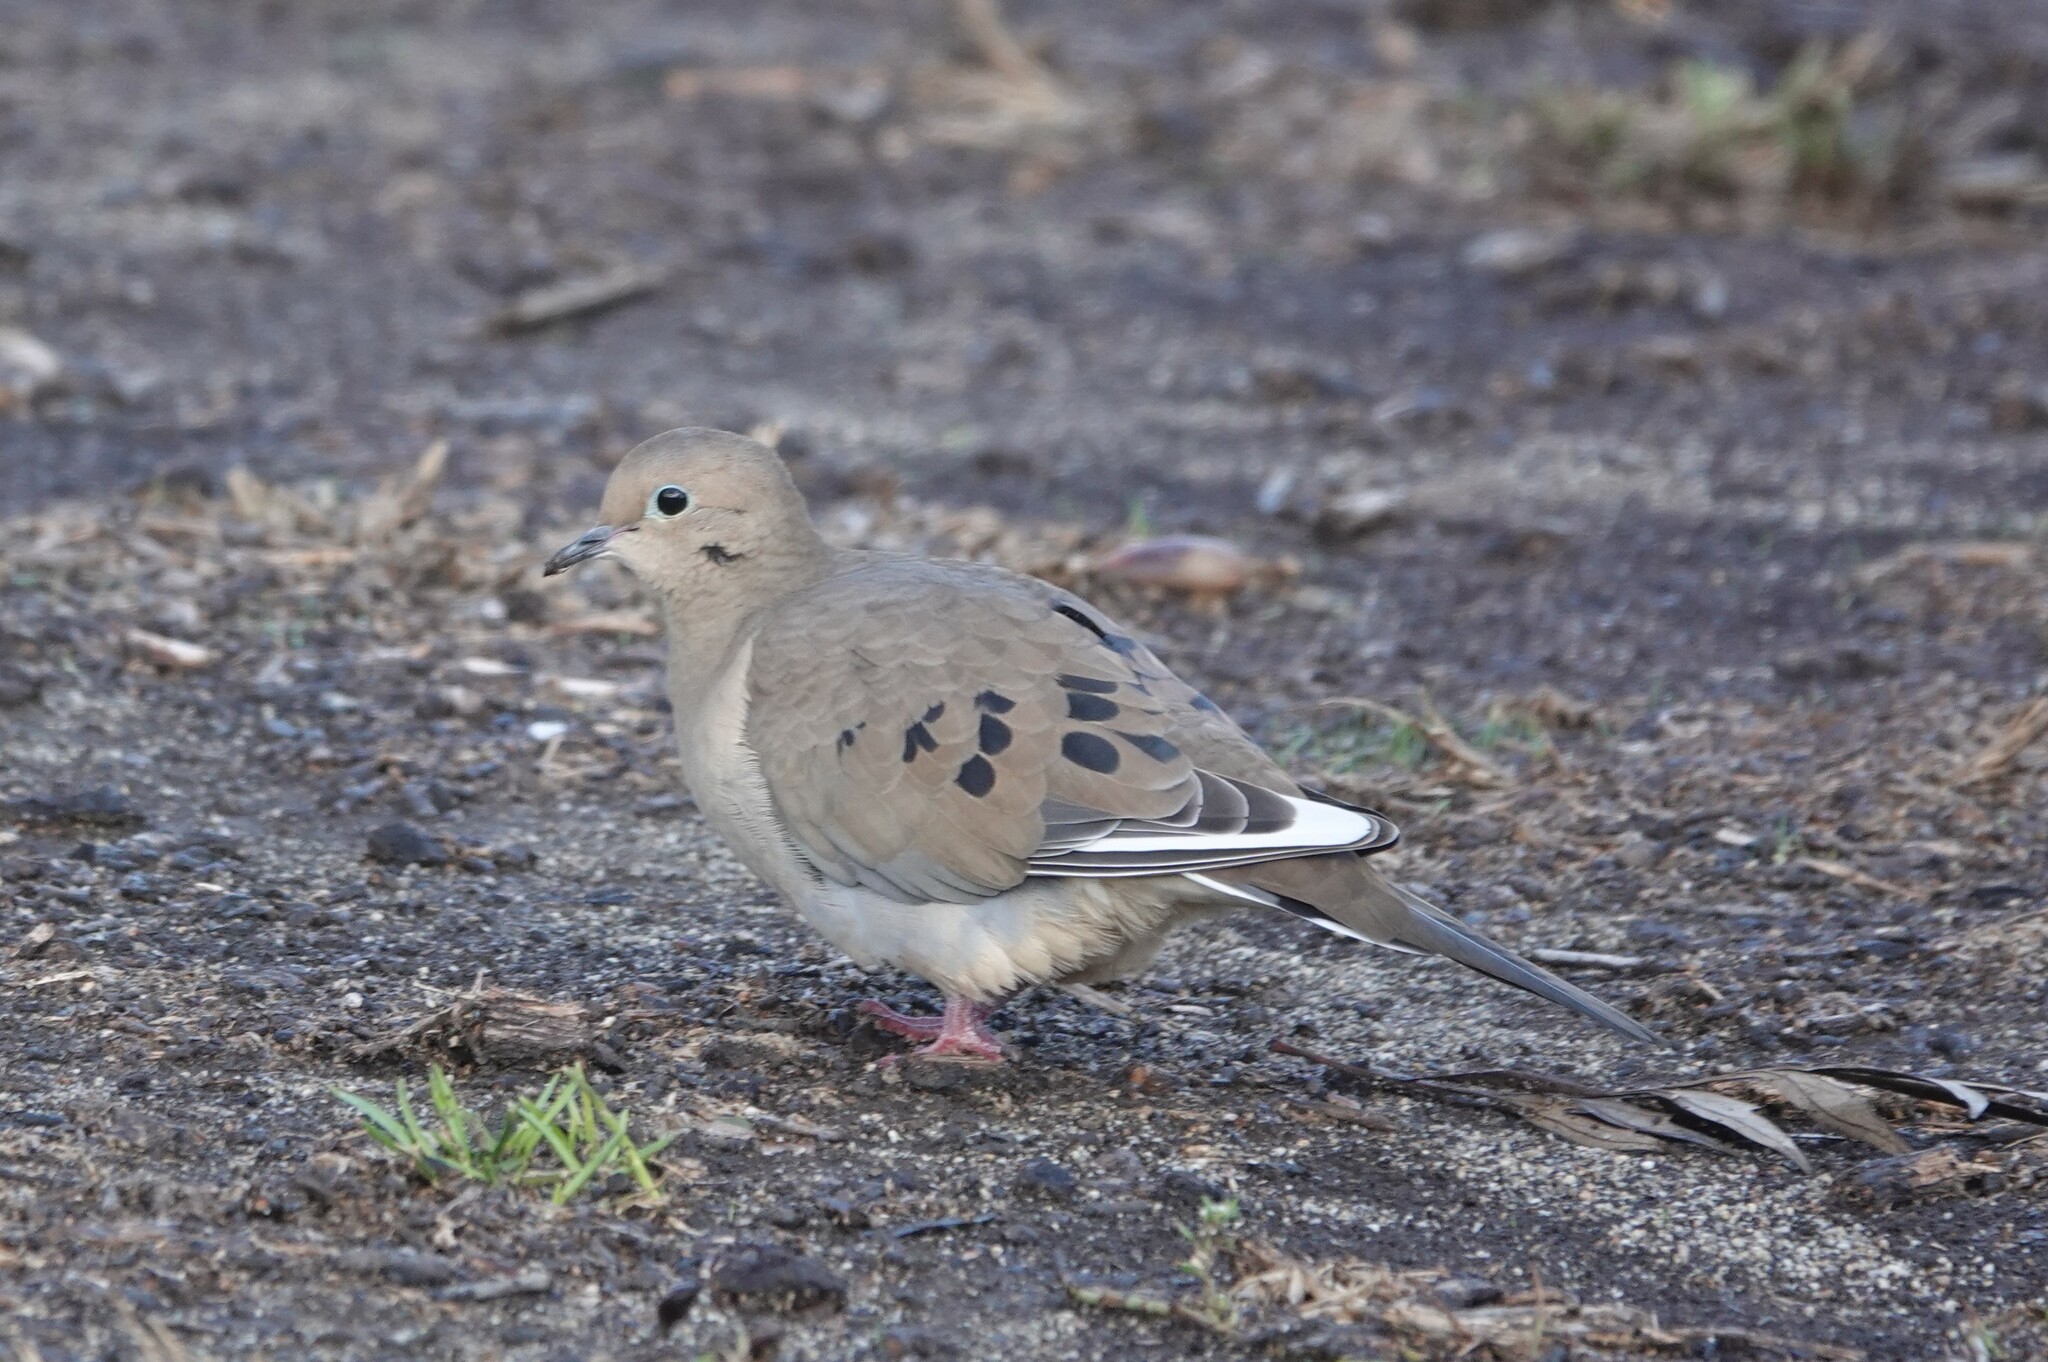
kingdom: Animalia
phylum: Chordata
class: Aves
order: Columbiformes
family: Columbidae
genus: Zenaida
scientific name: Zenaida macroura
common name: Mourning dove
